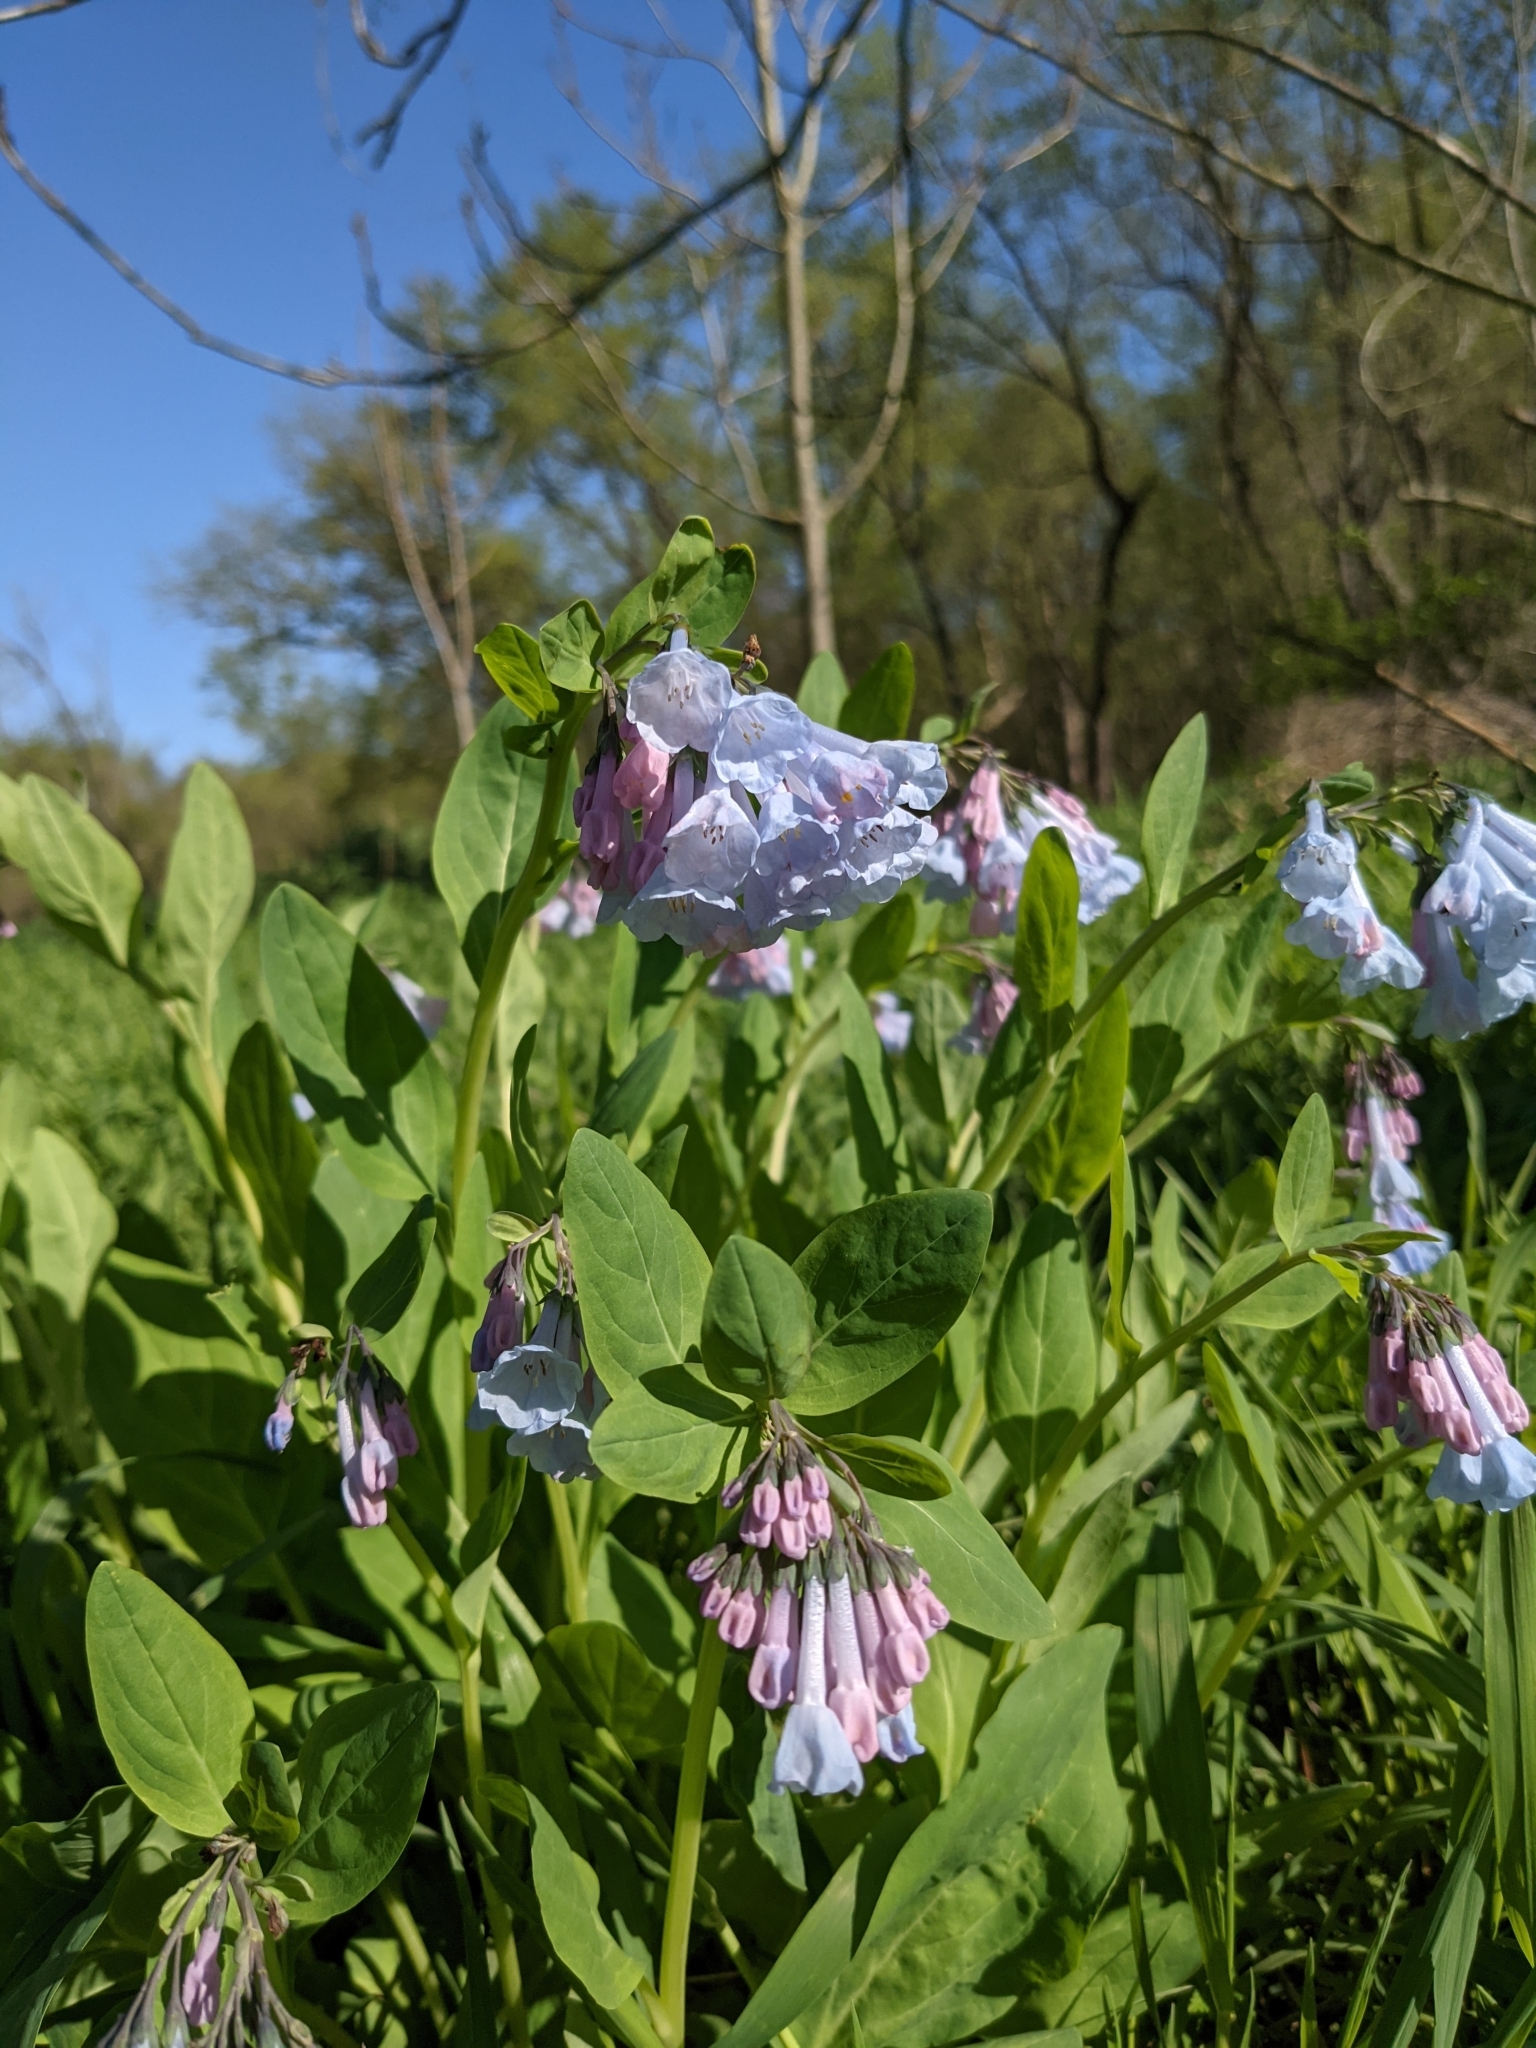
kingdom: Plantae
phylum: Tracheophyta
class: Magnoliopsida
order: Boraginales
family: Boraginaceae
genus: Mertensia
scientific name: Mertensia virginica
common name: Virginia bluebells
